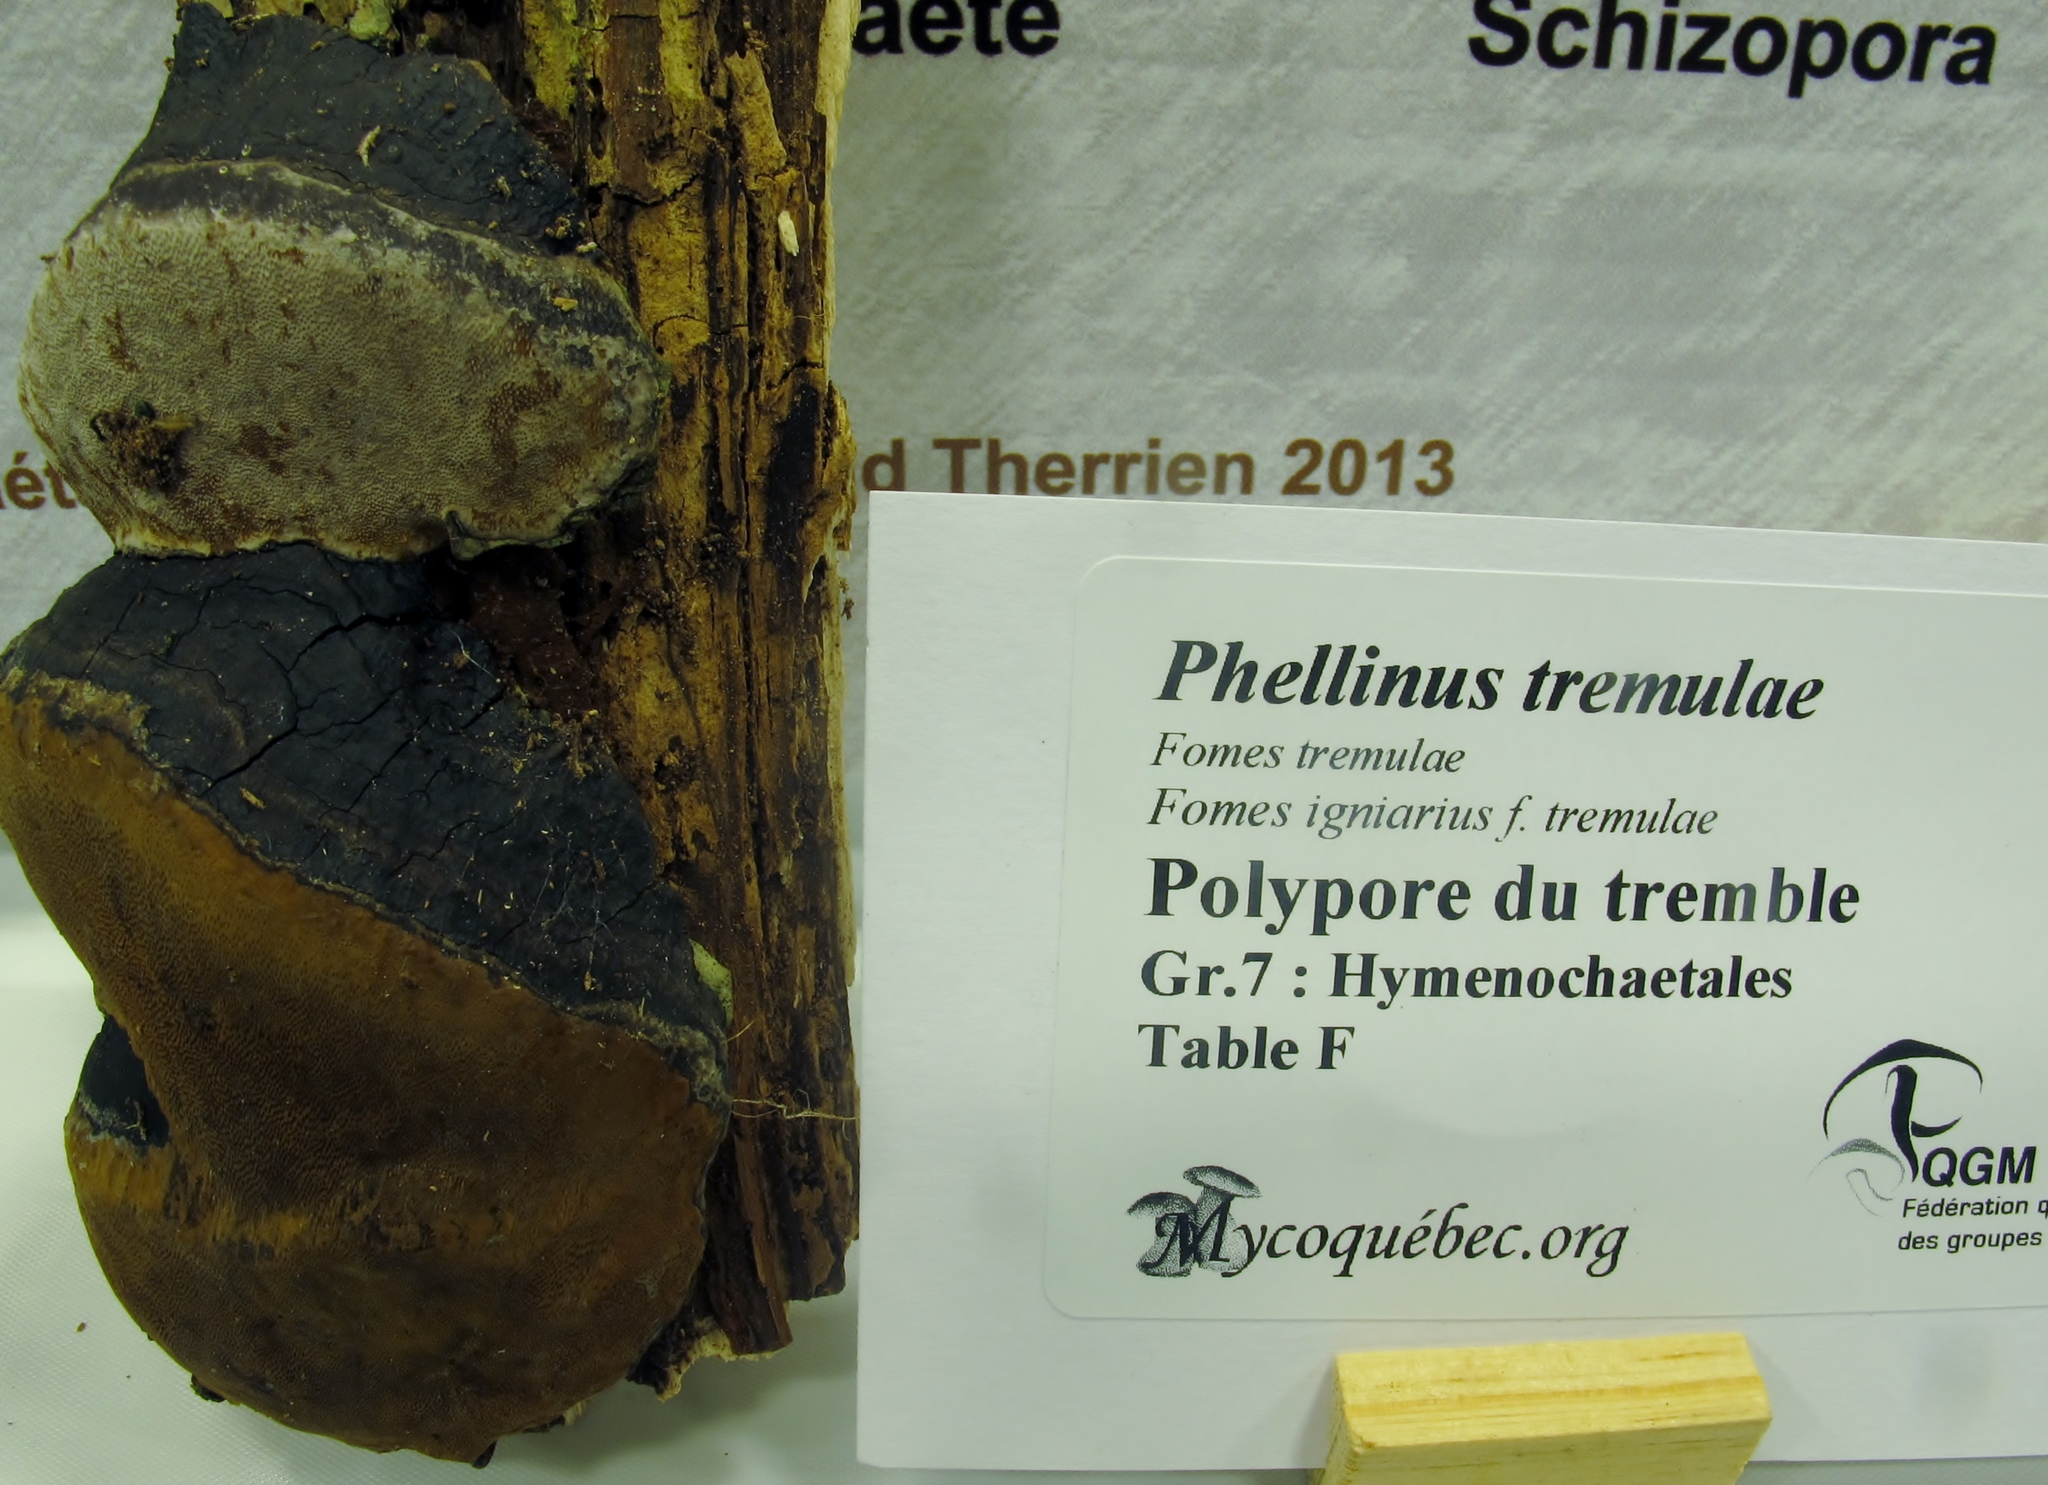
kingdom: Fungi
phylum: Basidiomycota
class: Agaricomycetes
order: Hymenochaetales
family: Hymenochaetaceae
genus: Phellinus
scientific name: Phellinus tremulae
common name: Aspen bracket
